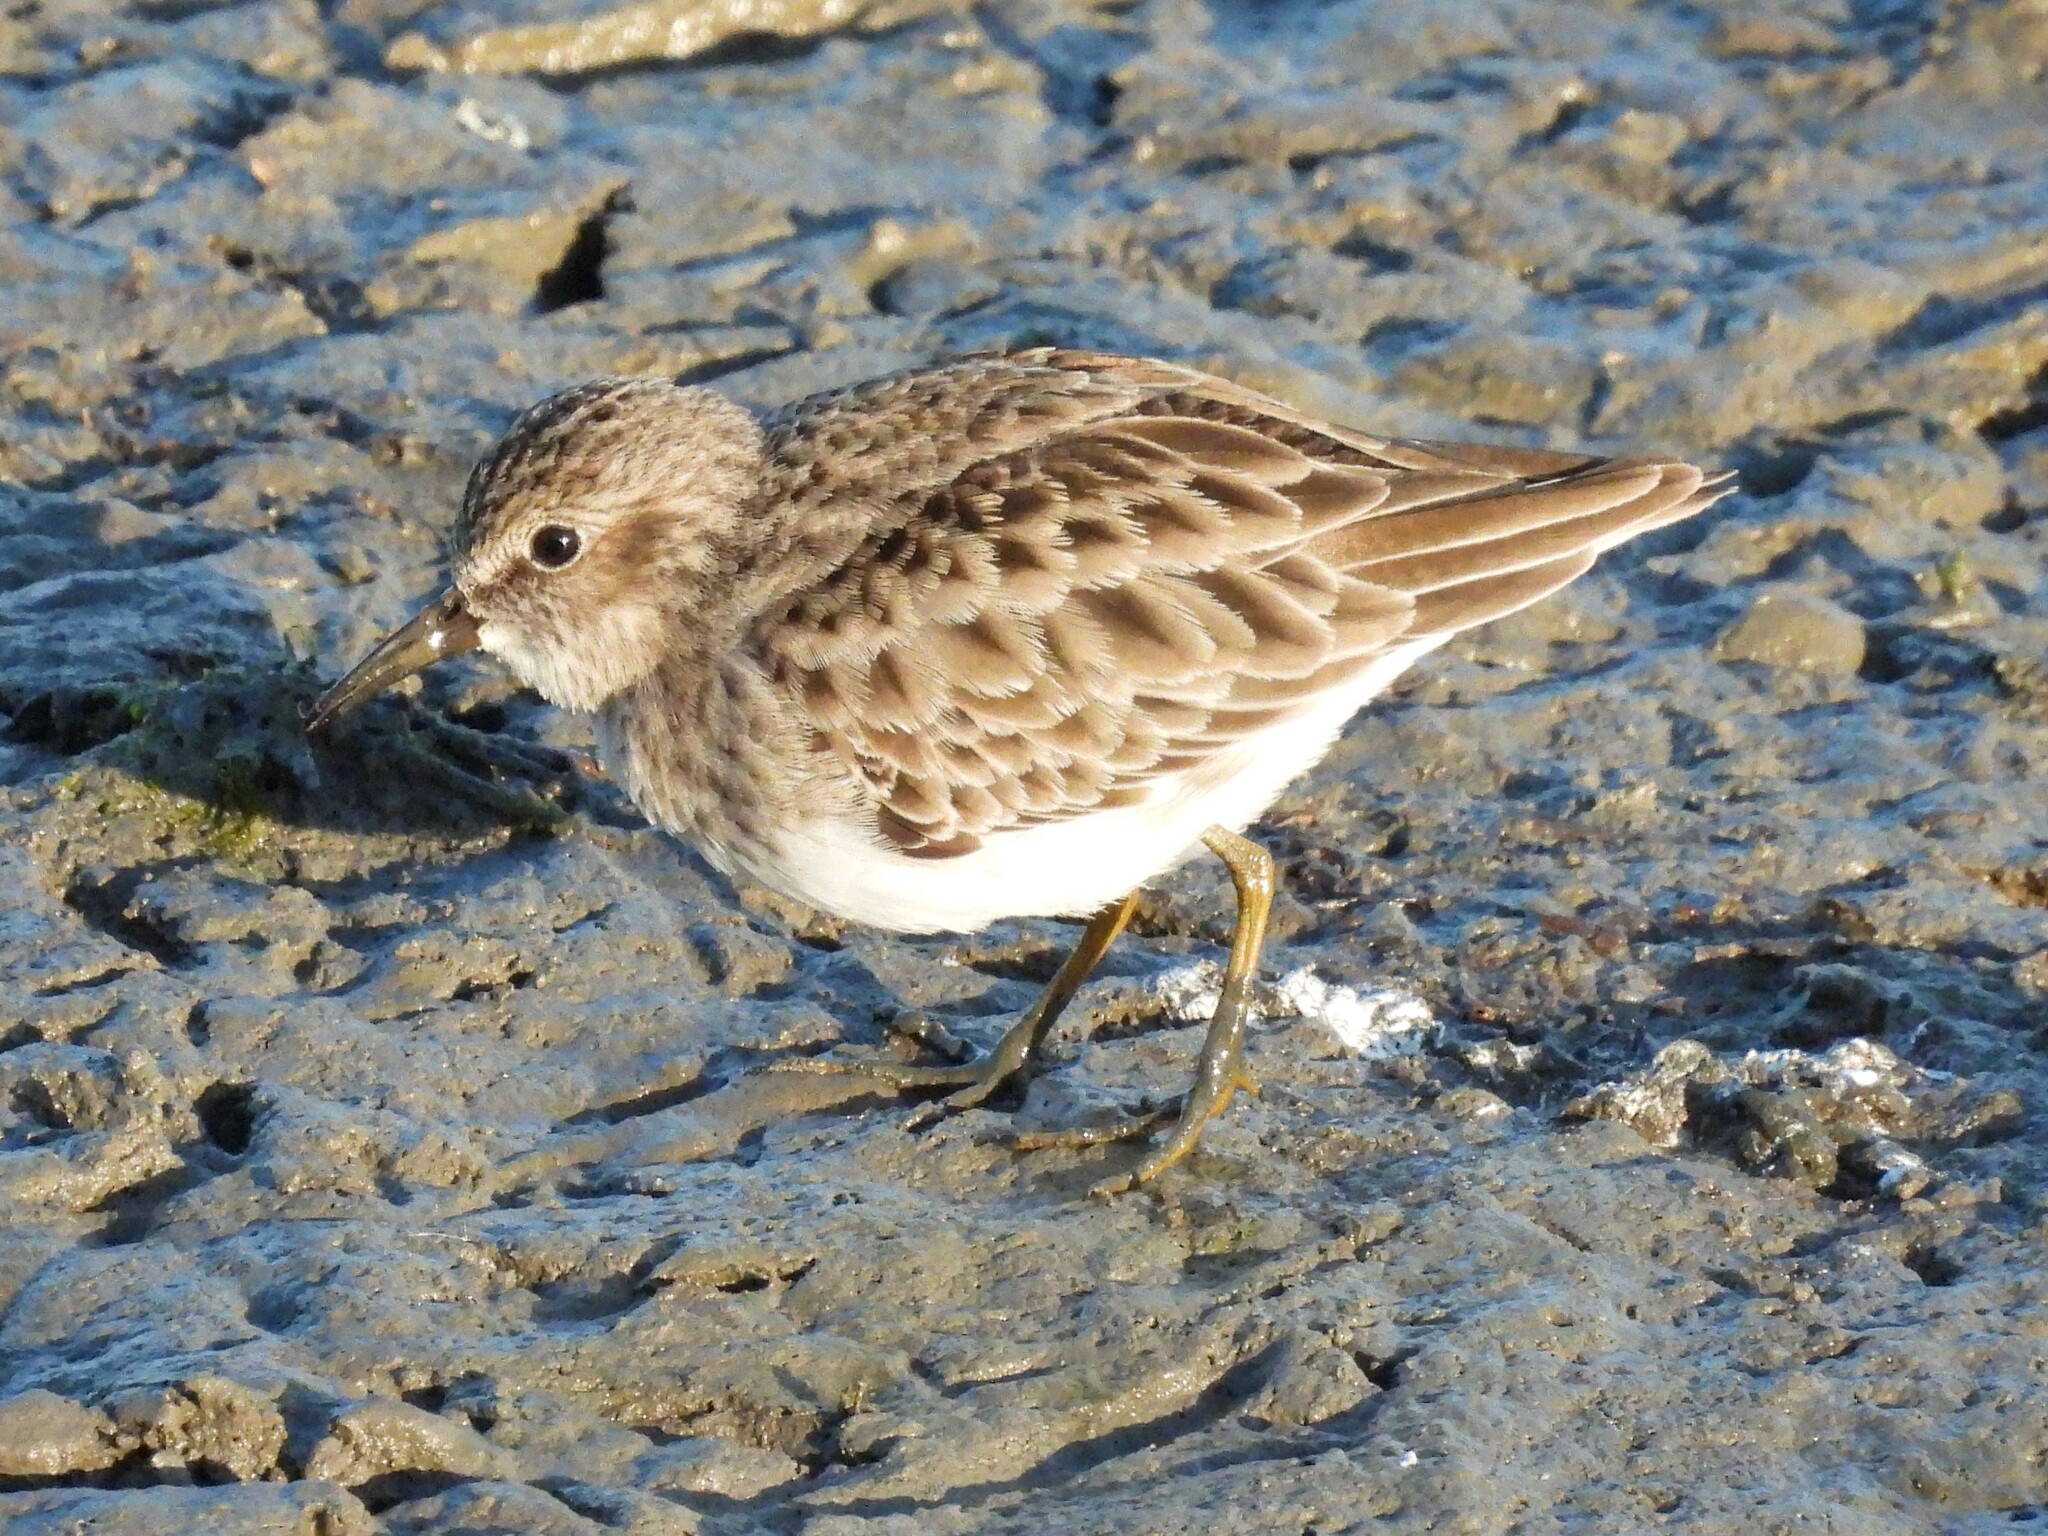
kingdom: Animalia
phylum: Chordata
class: Aves
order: Charadriiformes
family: Scolopacidae
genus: Calidris
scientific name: Calidris minutilla
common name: Least sandpiper
